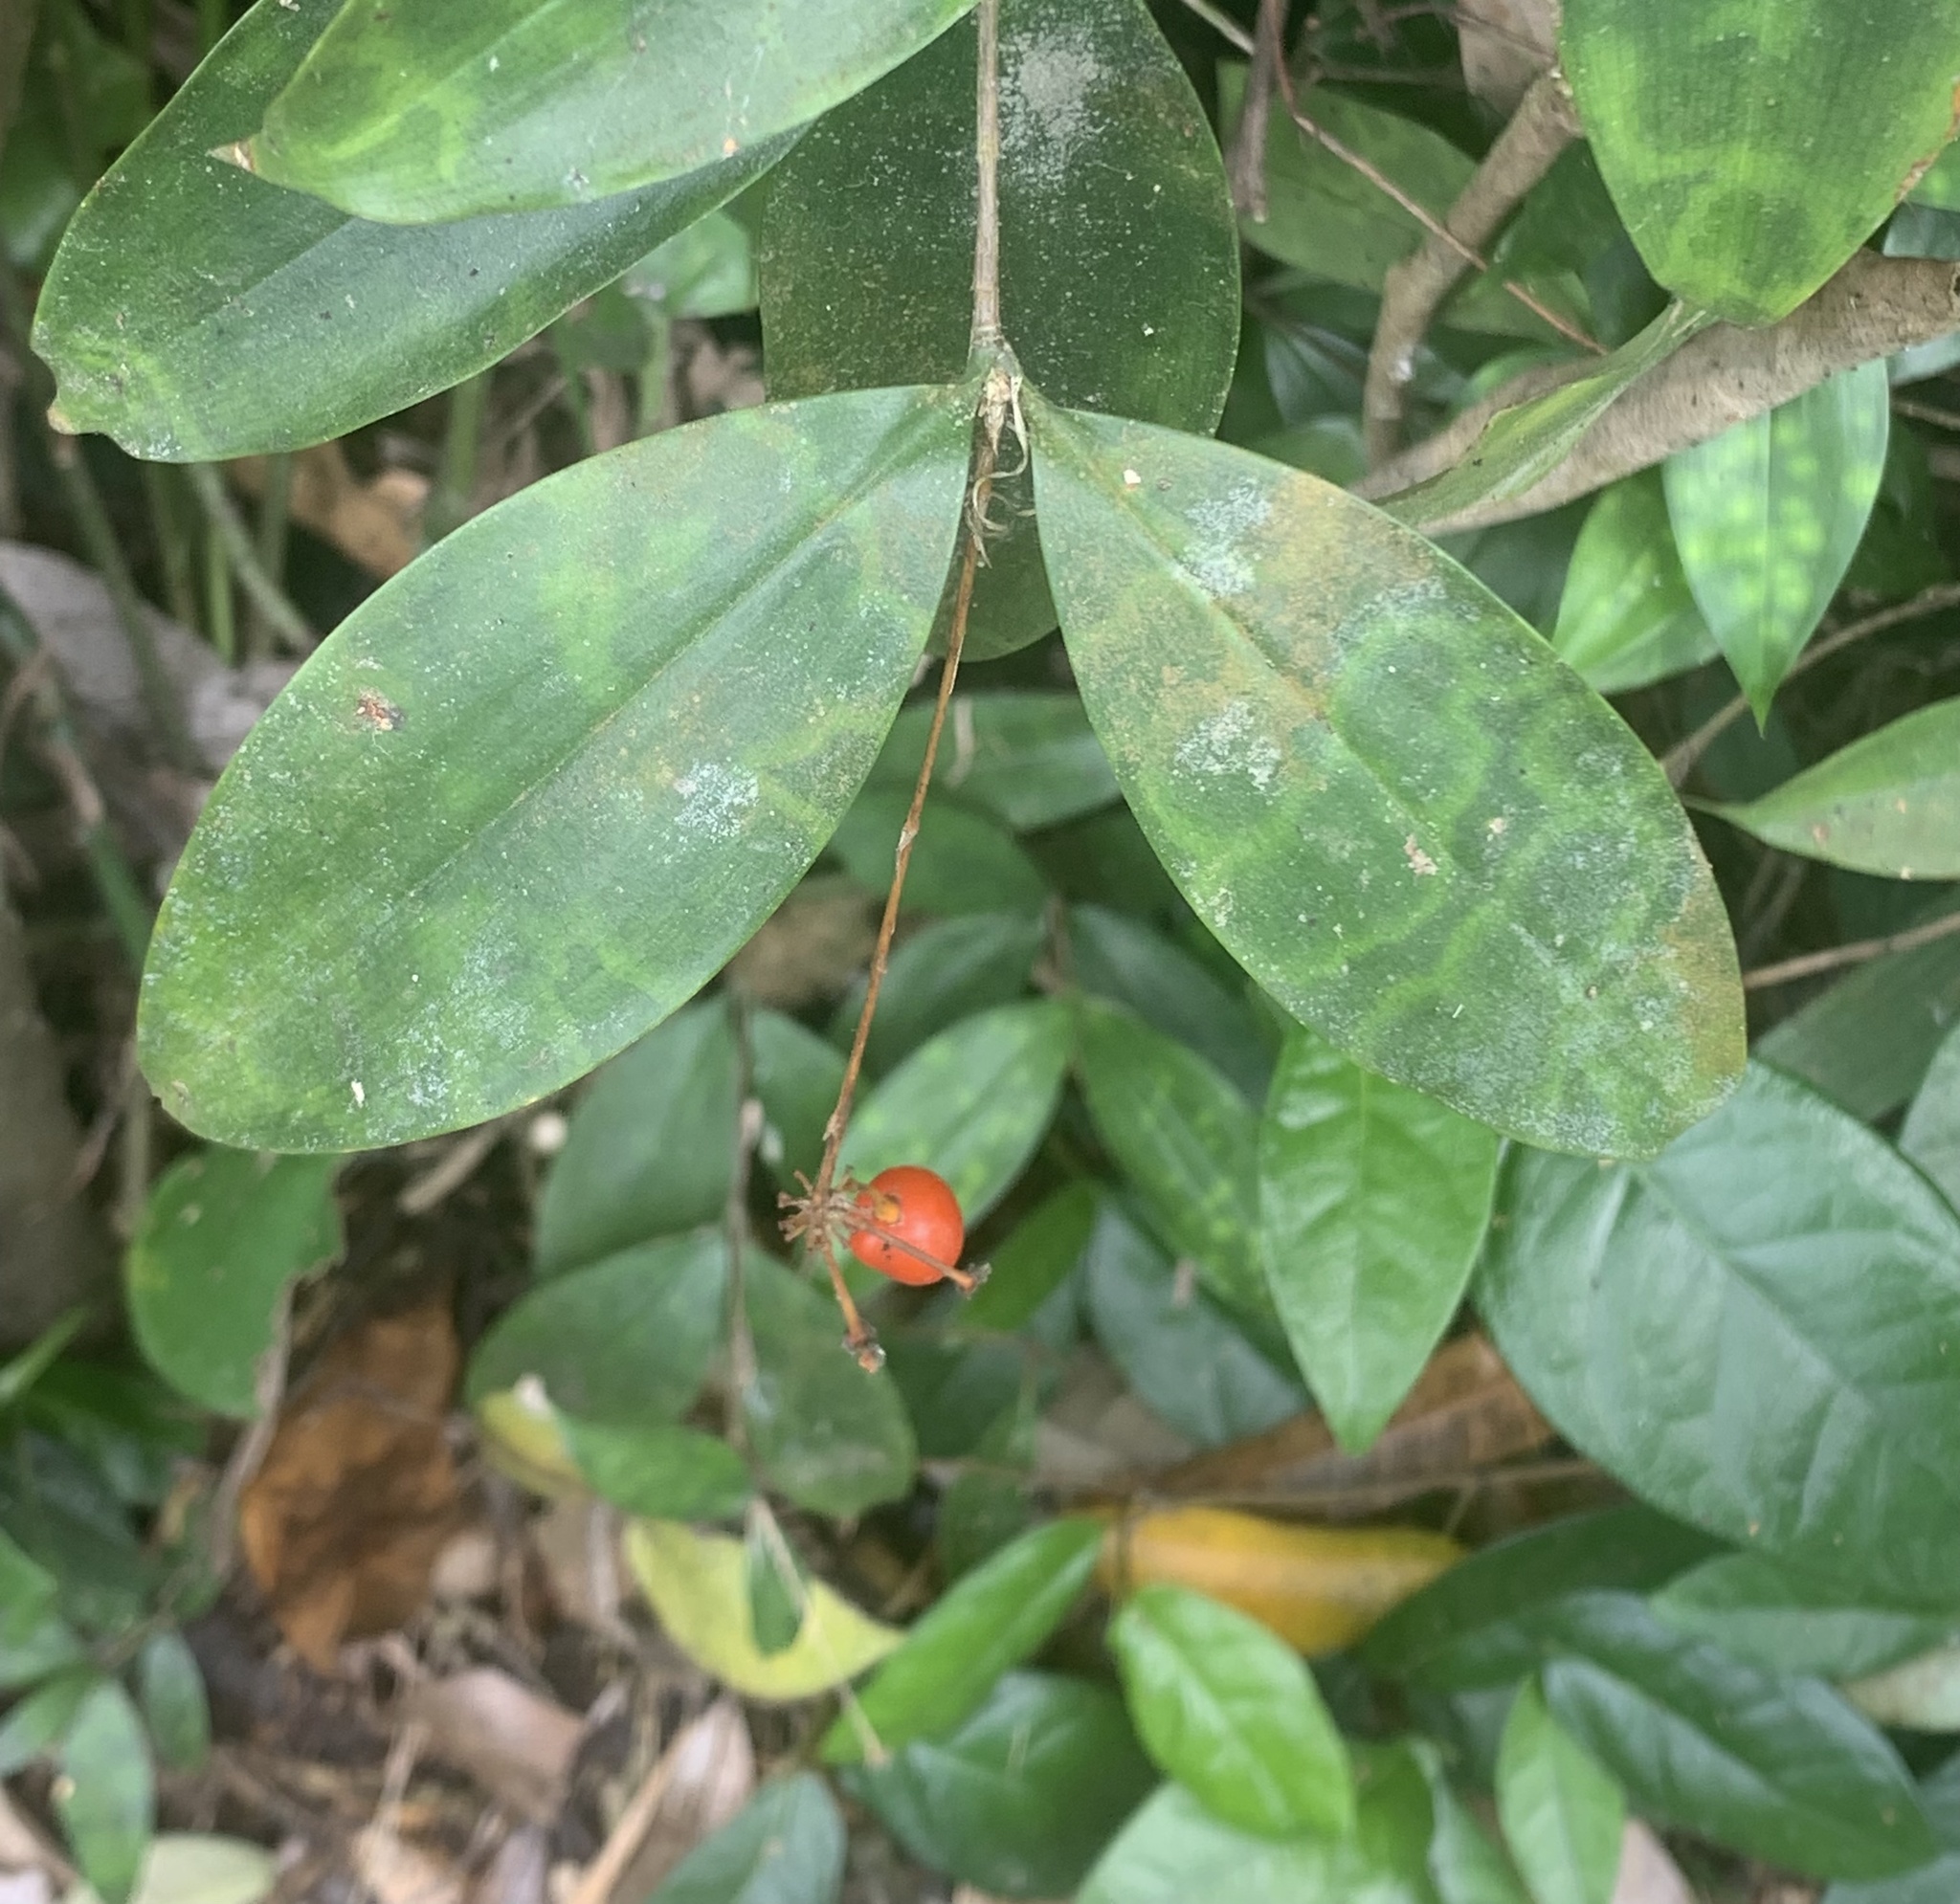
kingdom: Plantae
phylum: Tracheophyta
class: Liliopsida
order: Asparagales
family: Asparagaceae
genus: Dracaena
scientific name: Dracaena surculosa
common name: Spotted dracaena
